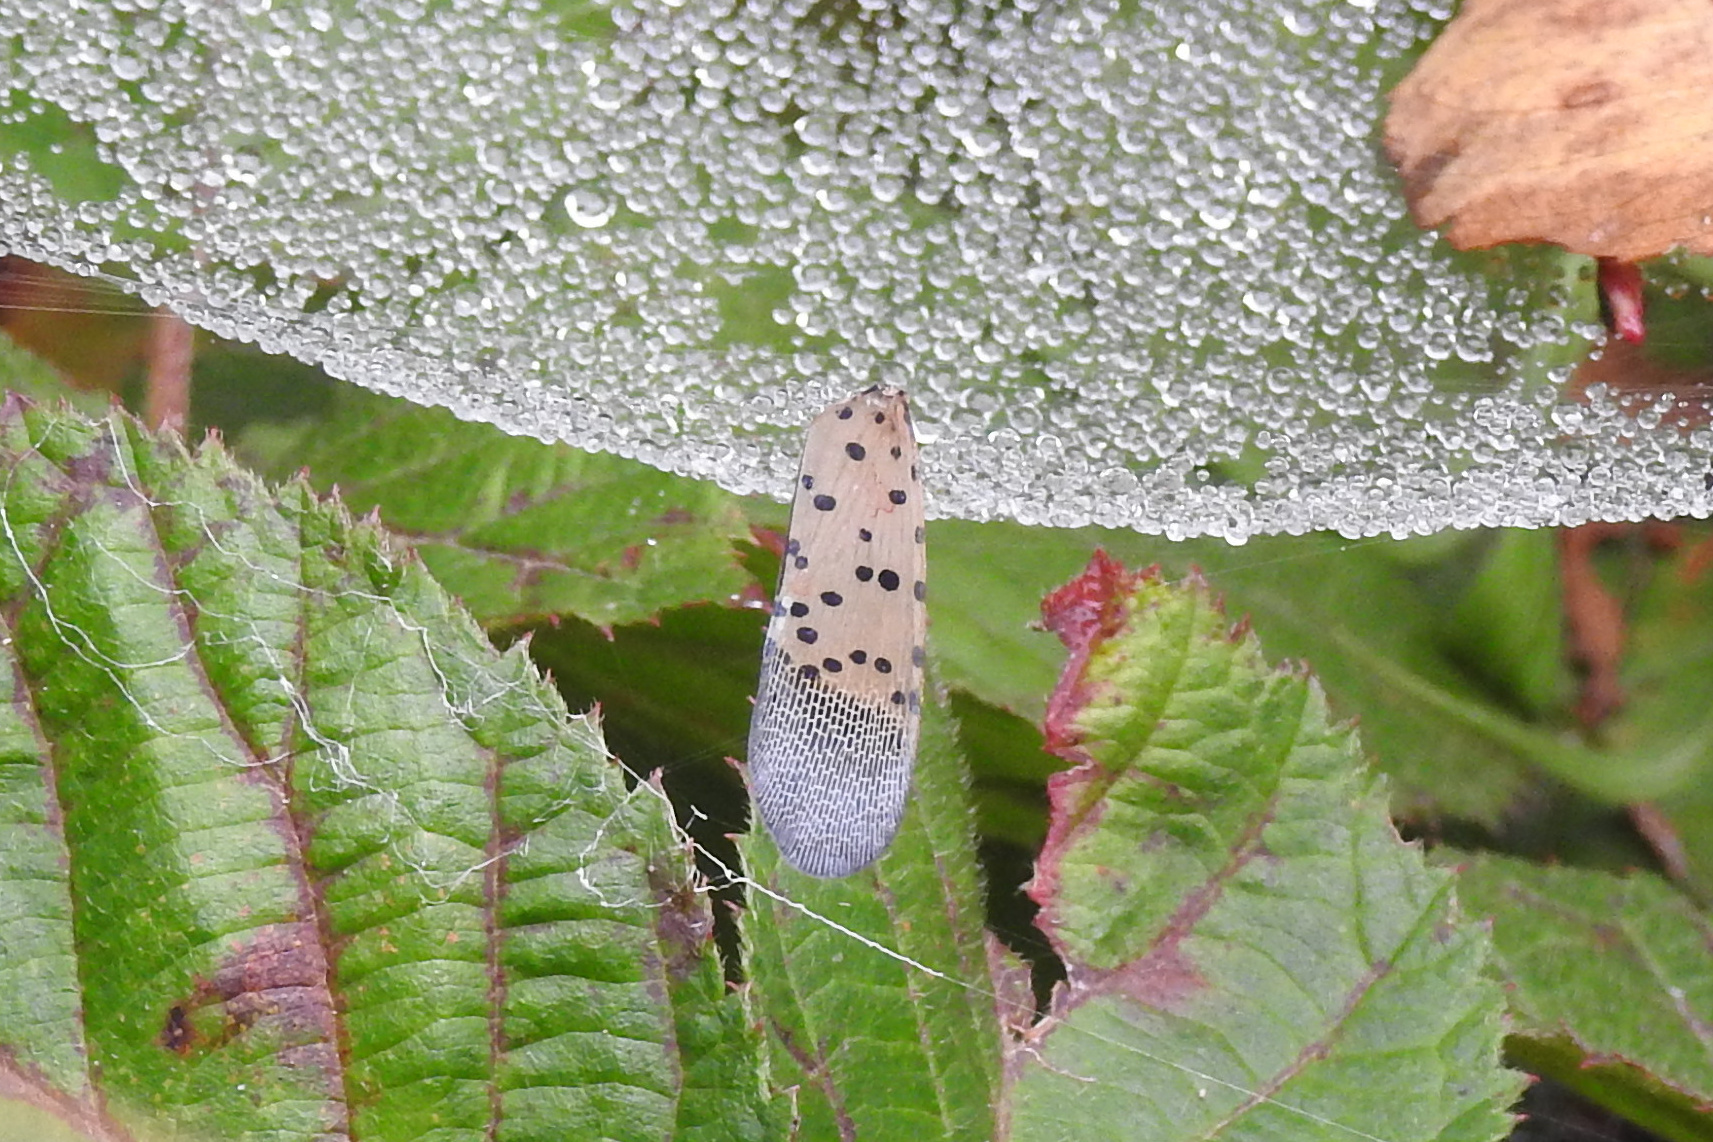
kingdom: Animalia
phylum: Arthropoda
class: Insecta
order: Hemiptera
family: Fulgoridae
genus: Lycorma
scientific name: Lycorma delicatula
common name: Spotted lanternfly
